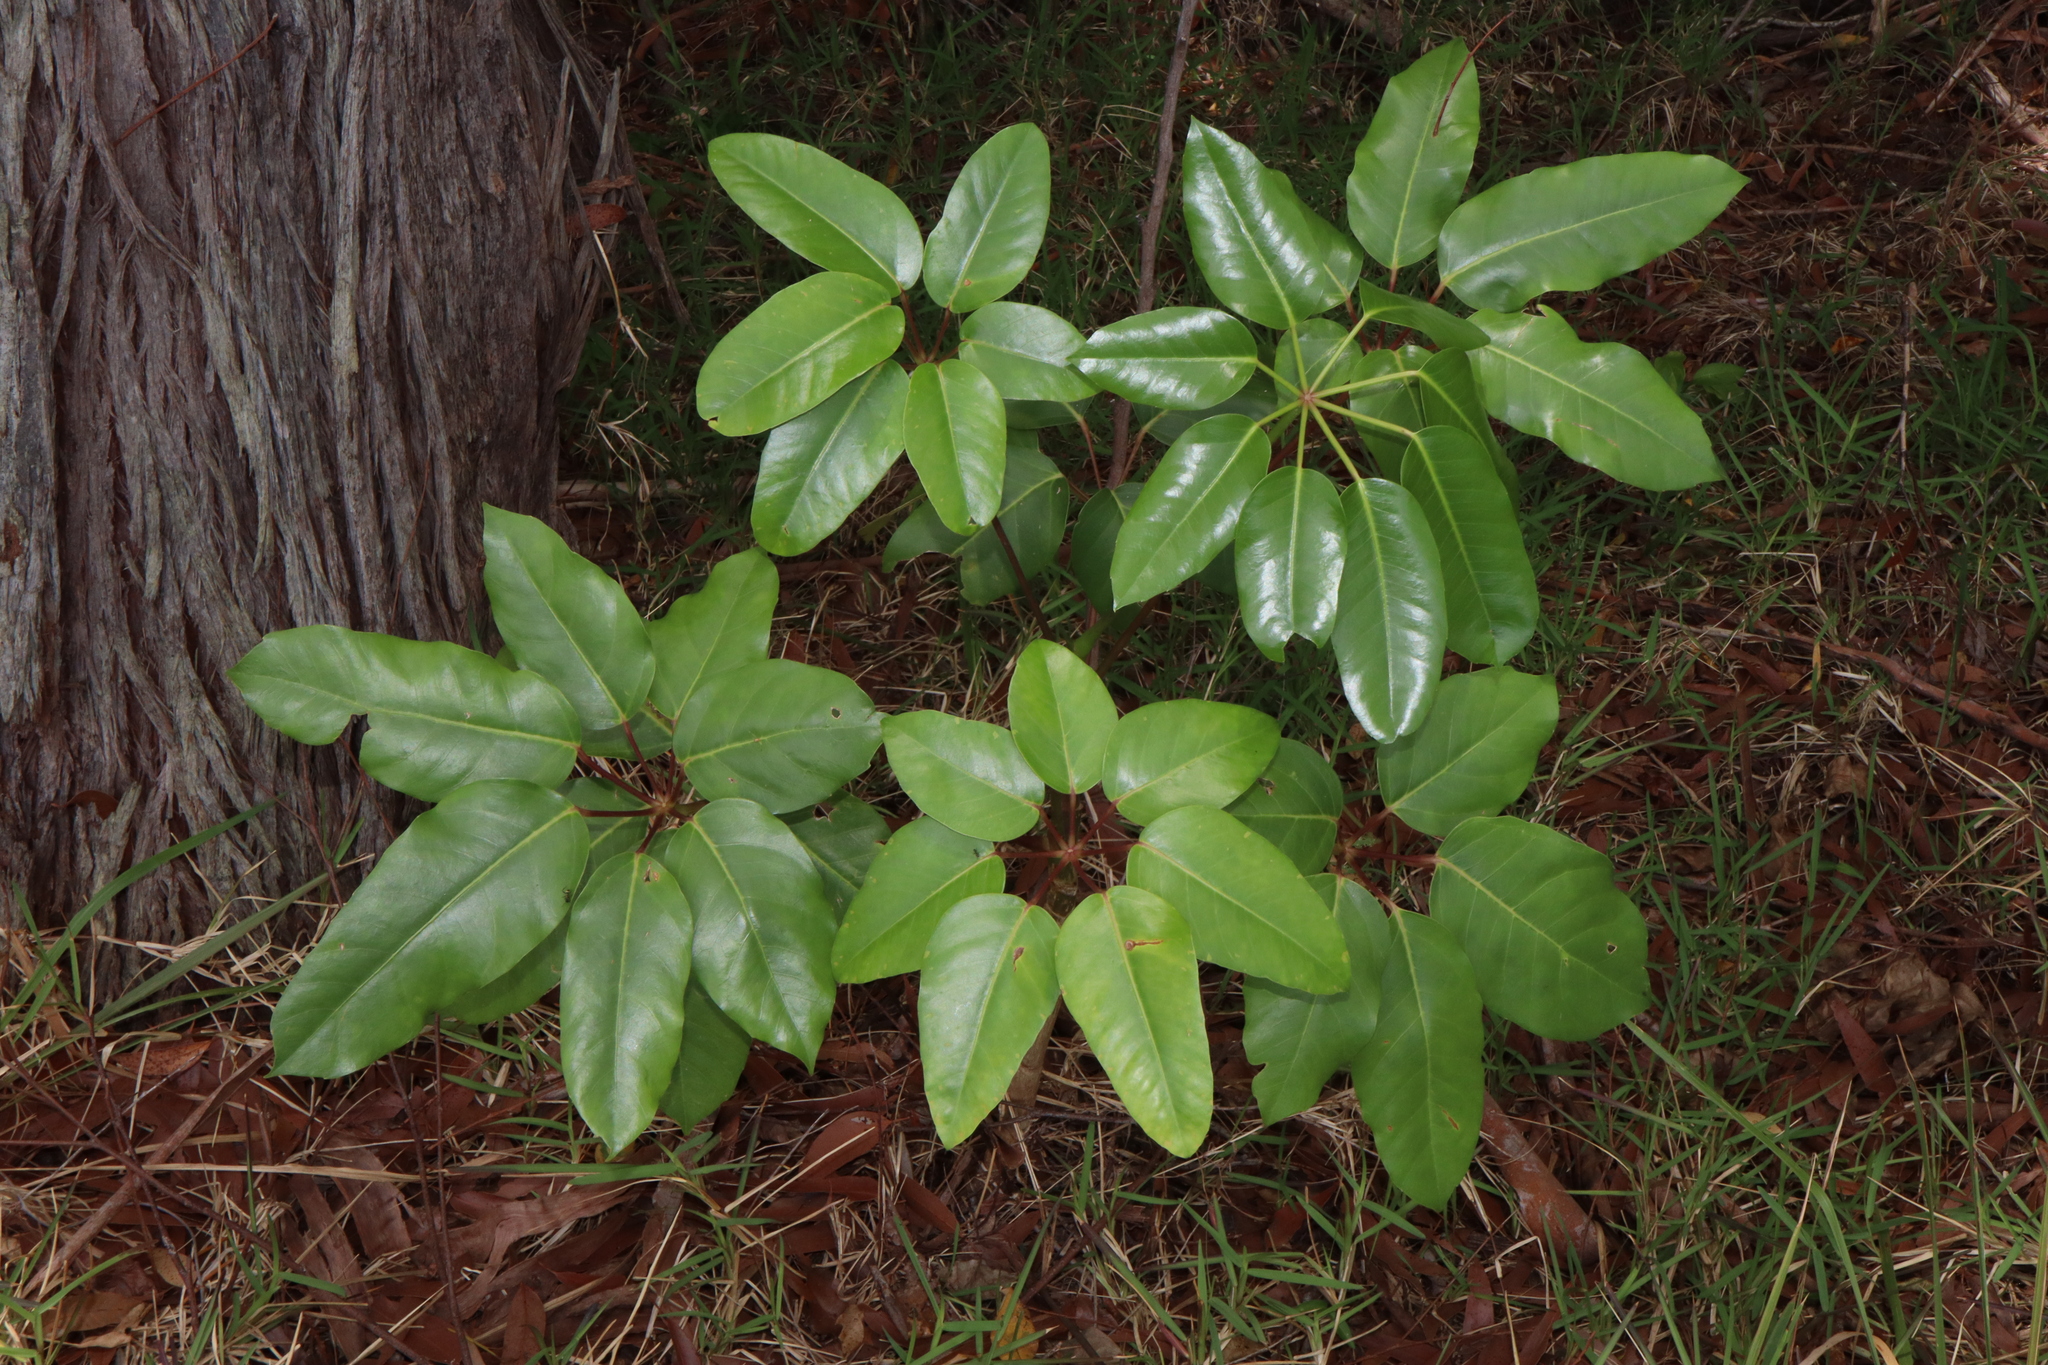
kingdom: Plantae
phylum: Tracheophyta
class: Magnoliopsida
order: Apiales
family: Araliaceae
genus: Heptapleurum
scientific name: Heptapleurum actinophyllum
